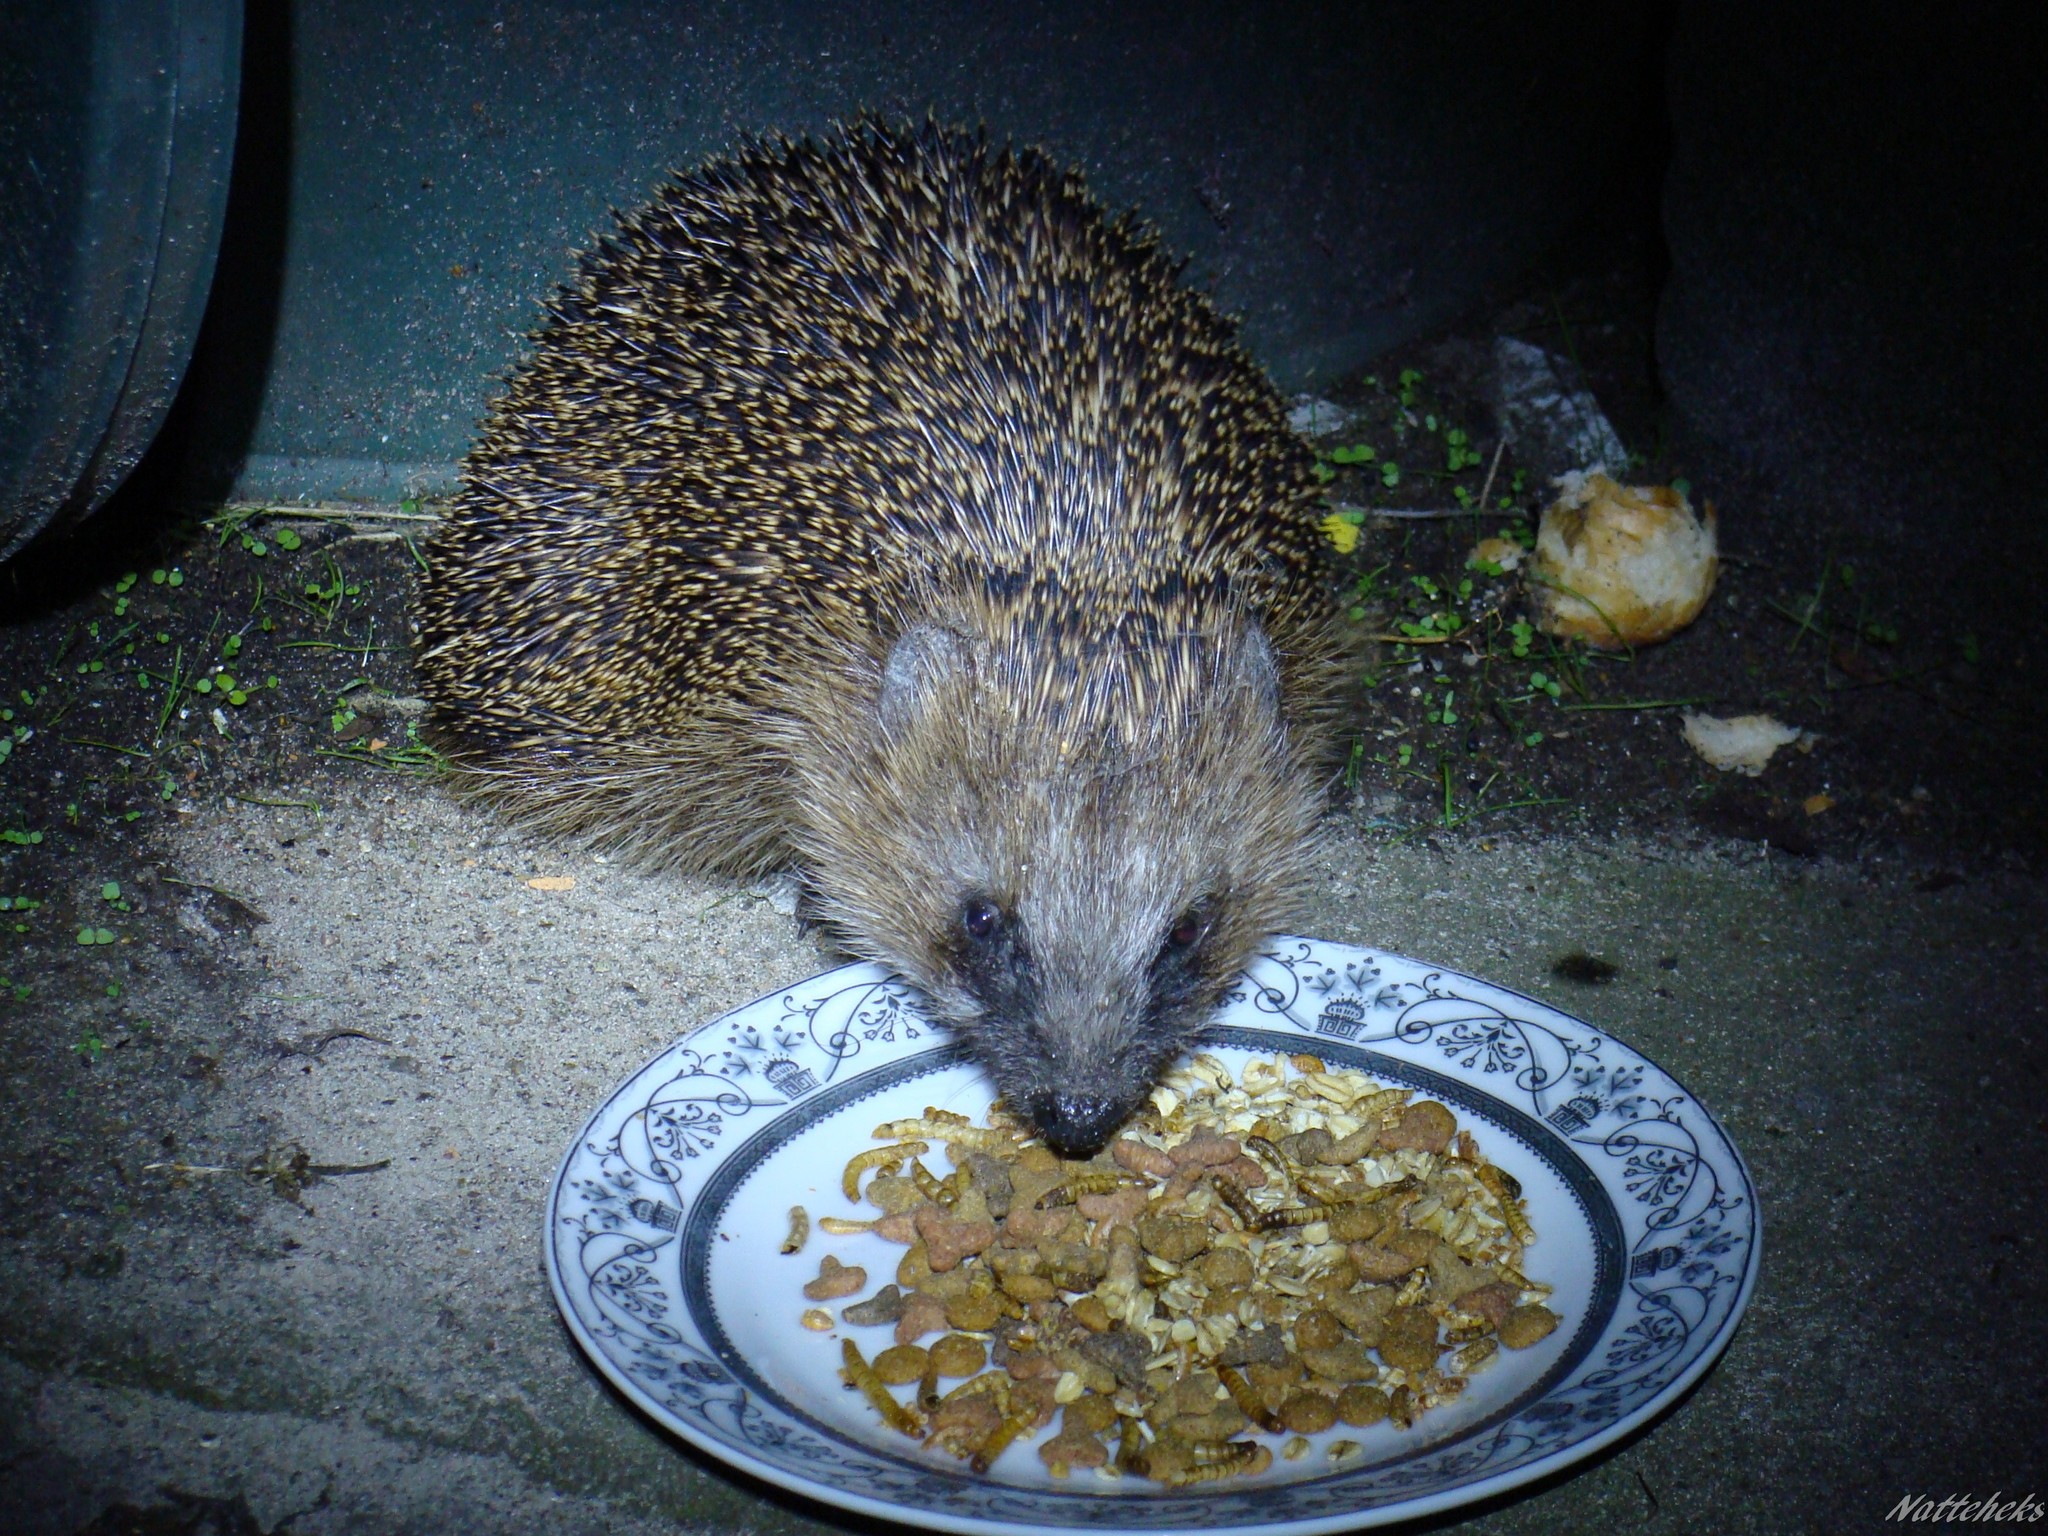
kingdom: Animalia
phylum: Chordata
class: Mammalia
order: Erinaceomorpha
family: Erinaceidae
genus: Erinaceus
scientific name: Erinaceus europaeus
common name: West european hedgehog
